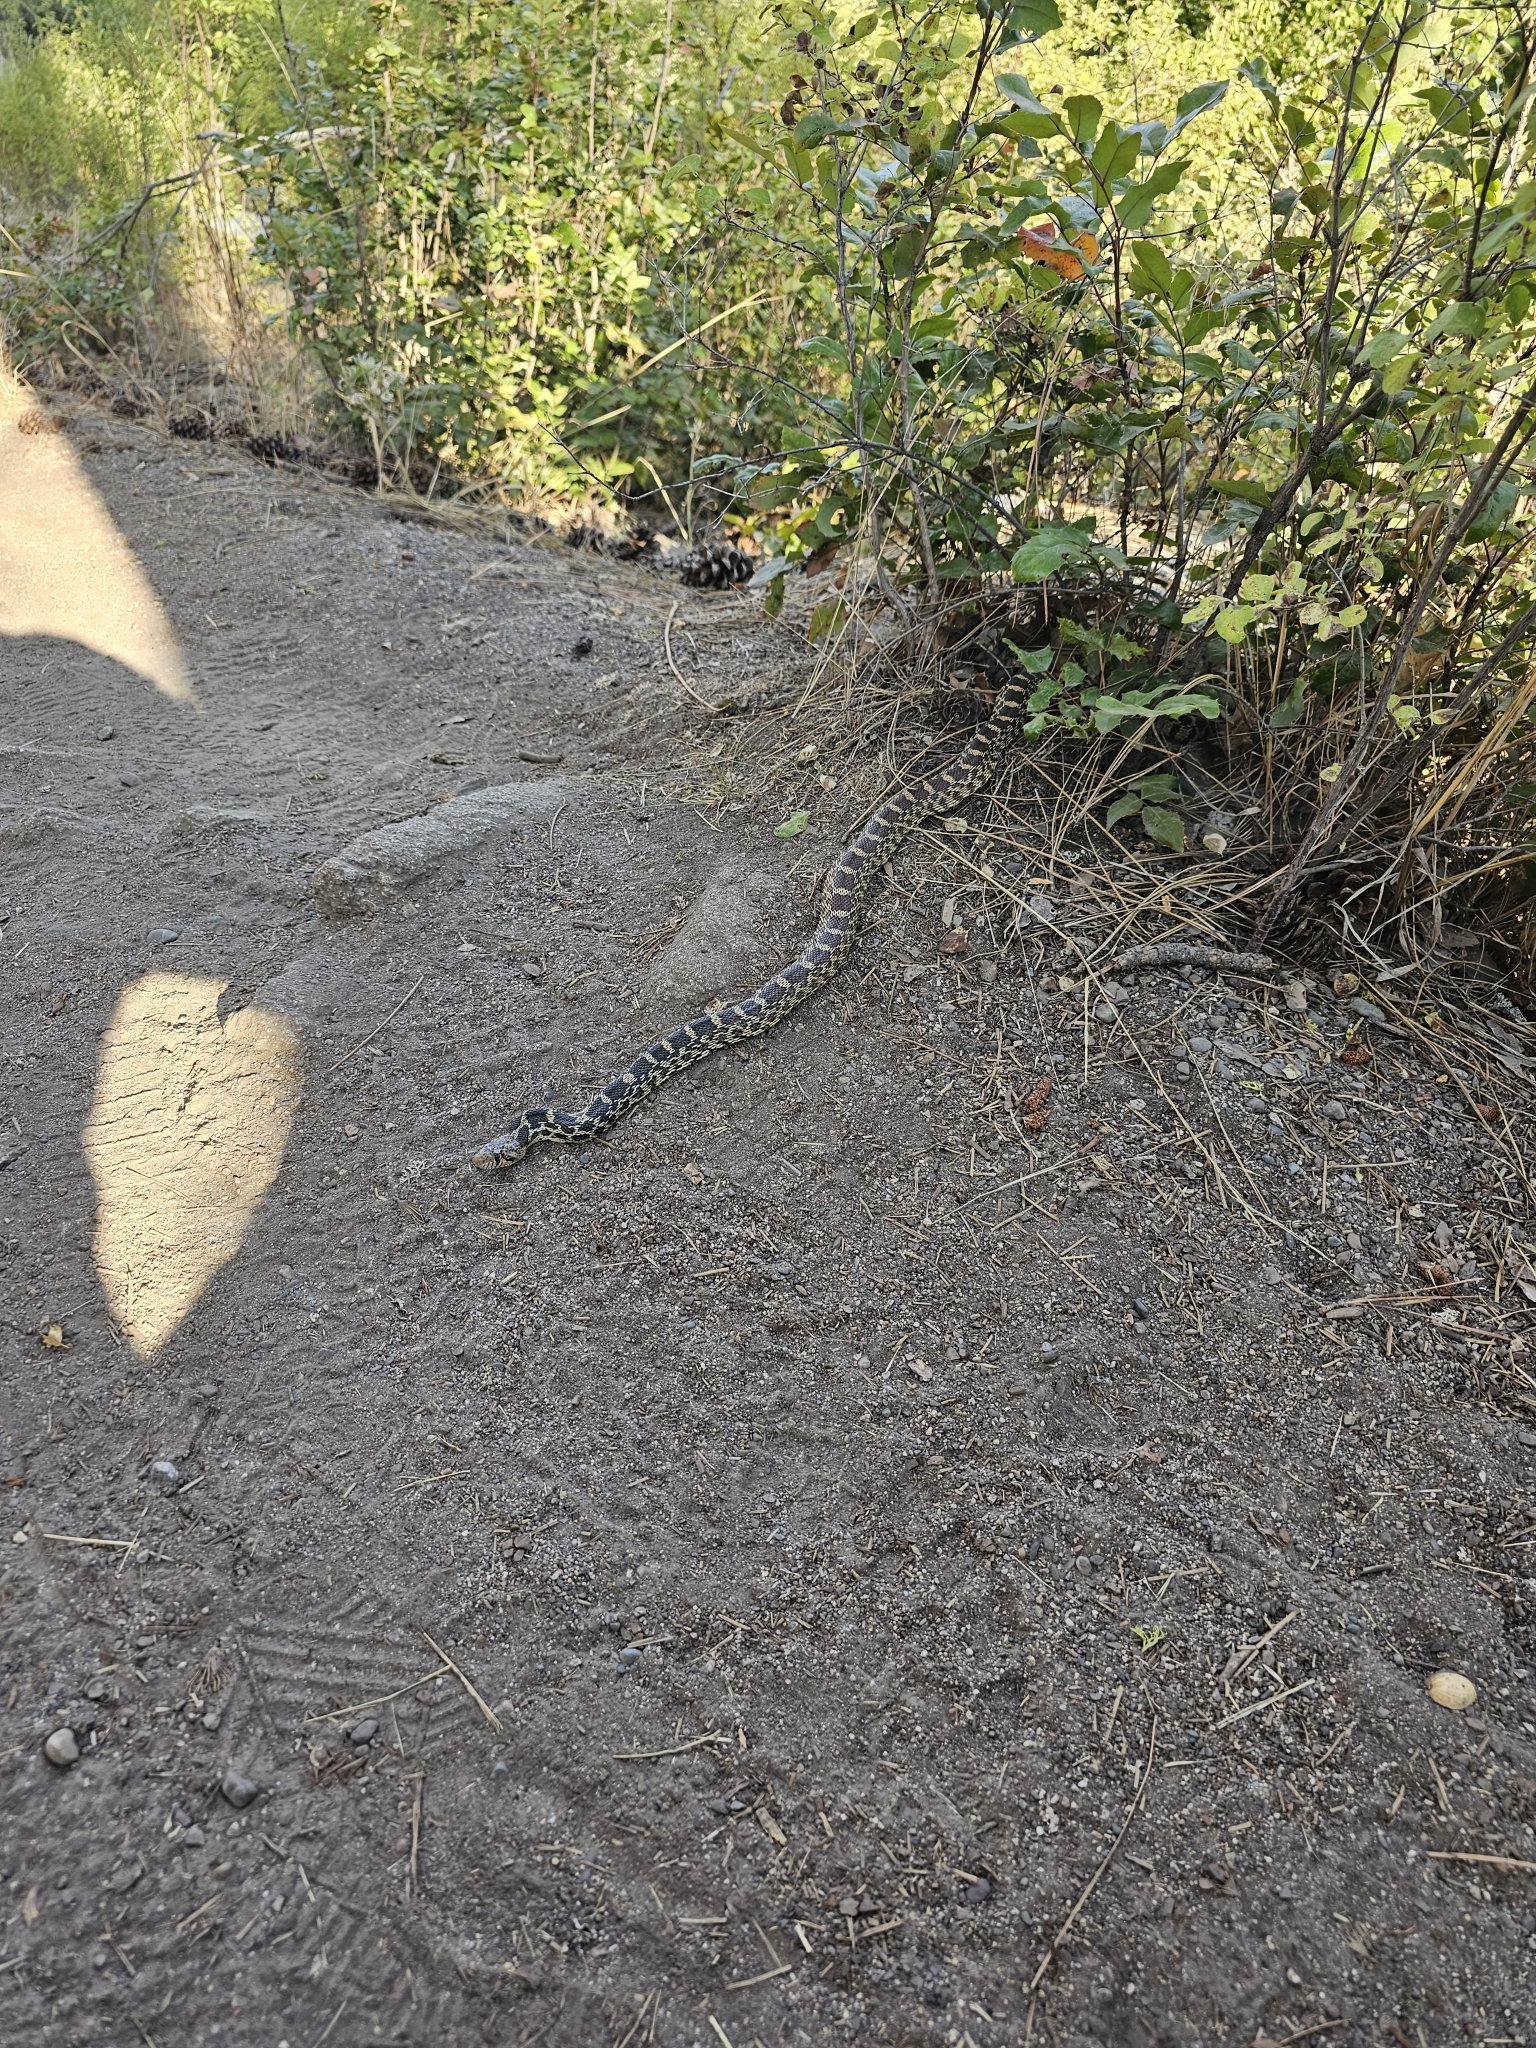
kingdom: Animalia
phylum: Chordata
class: Squamata
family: Colubridae
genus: Pituophis
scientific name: Pituophis catenifer
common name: Gopher snake
